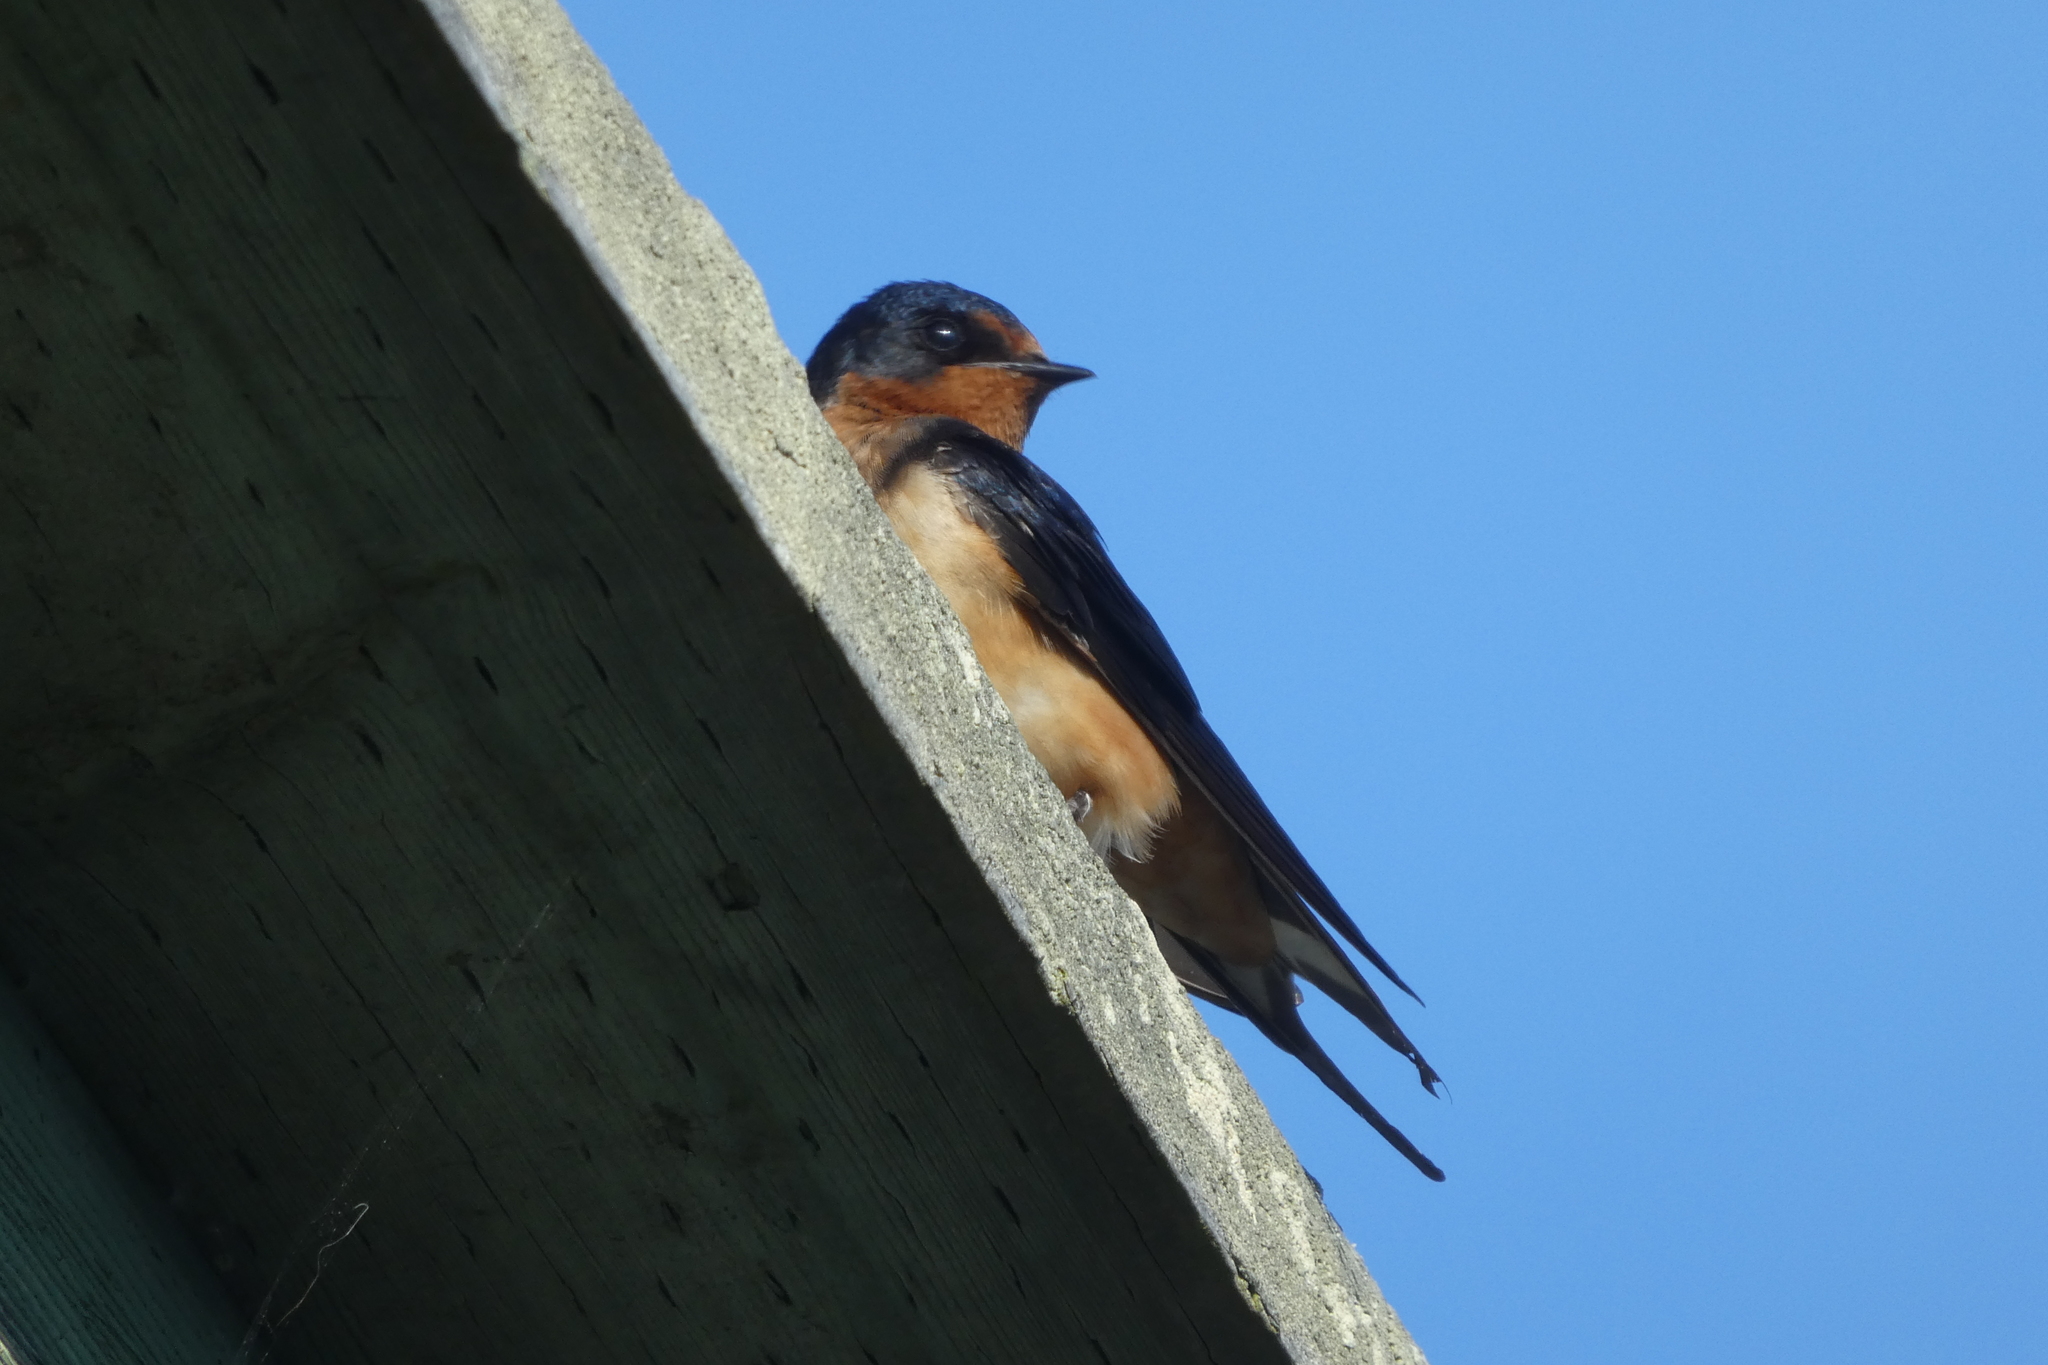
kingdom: Animalia
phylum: Chordata
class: Aves
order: Passeriformes
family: Hirundinidae
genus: Hirundo
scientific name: Hirundo rustica
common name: Barn swallow
